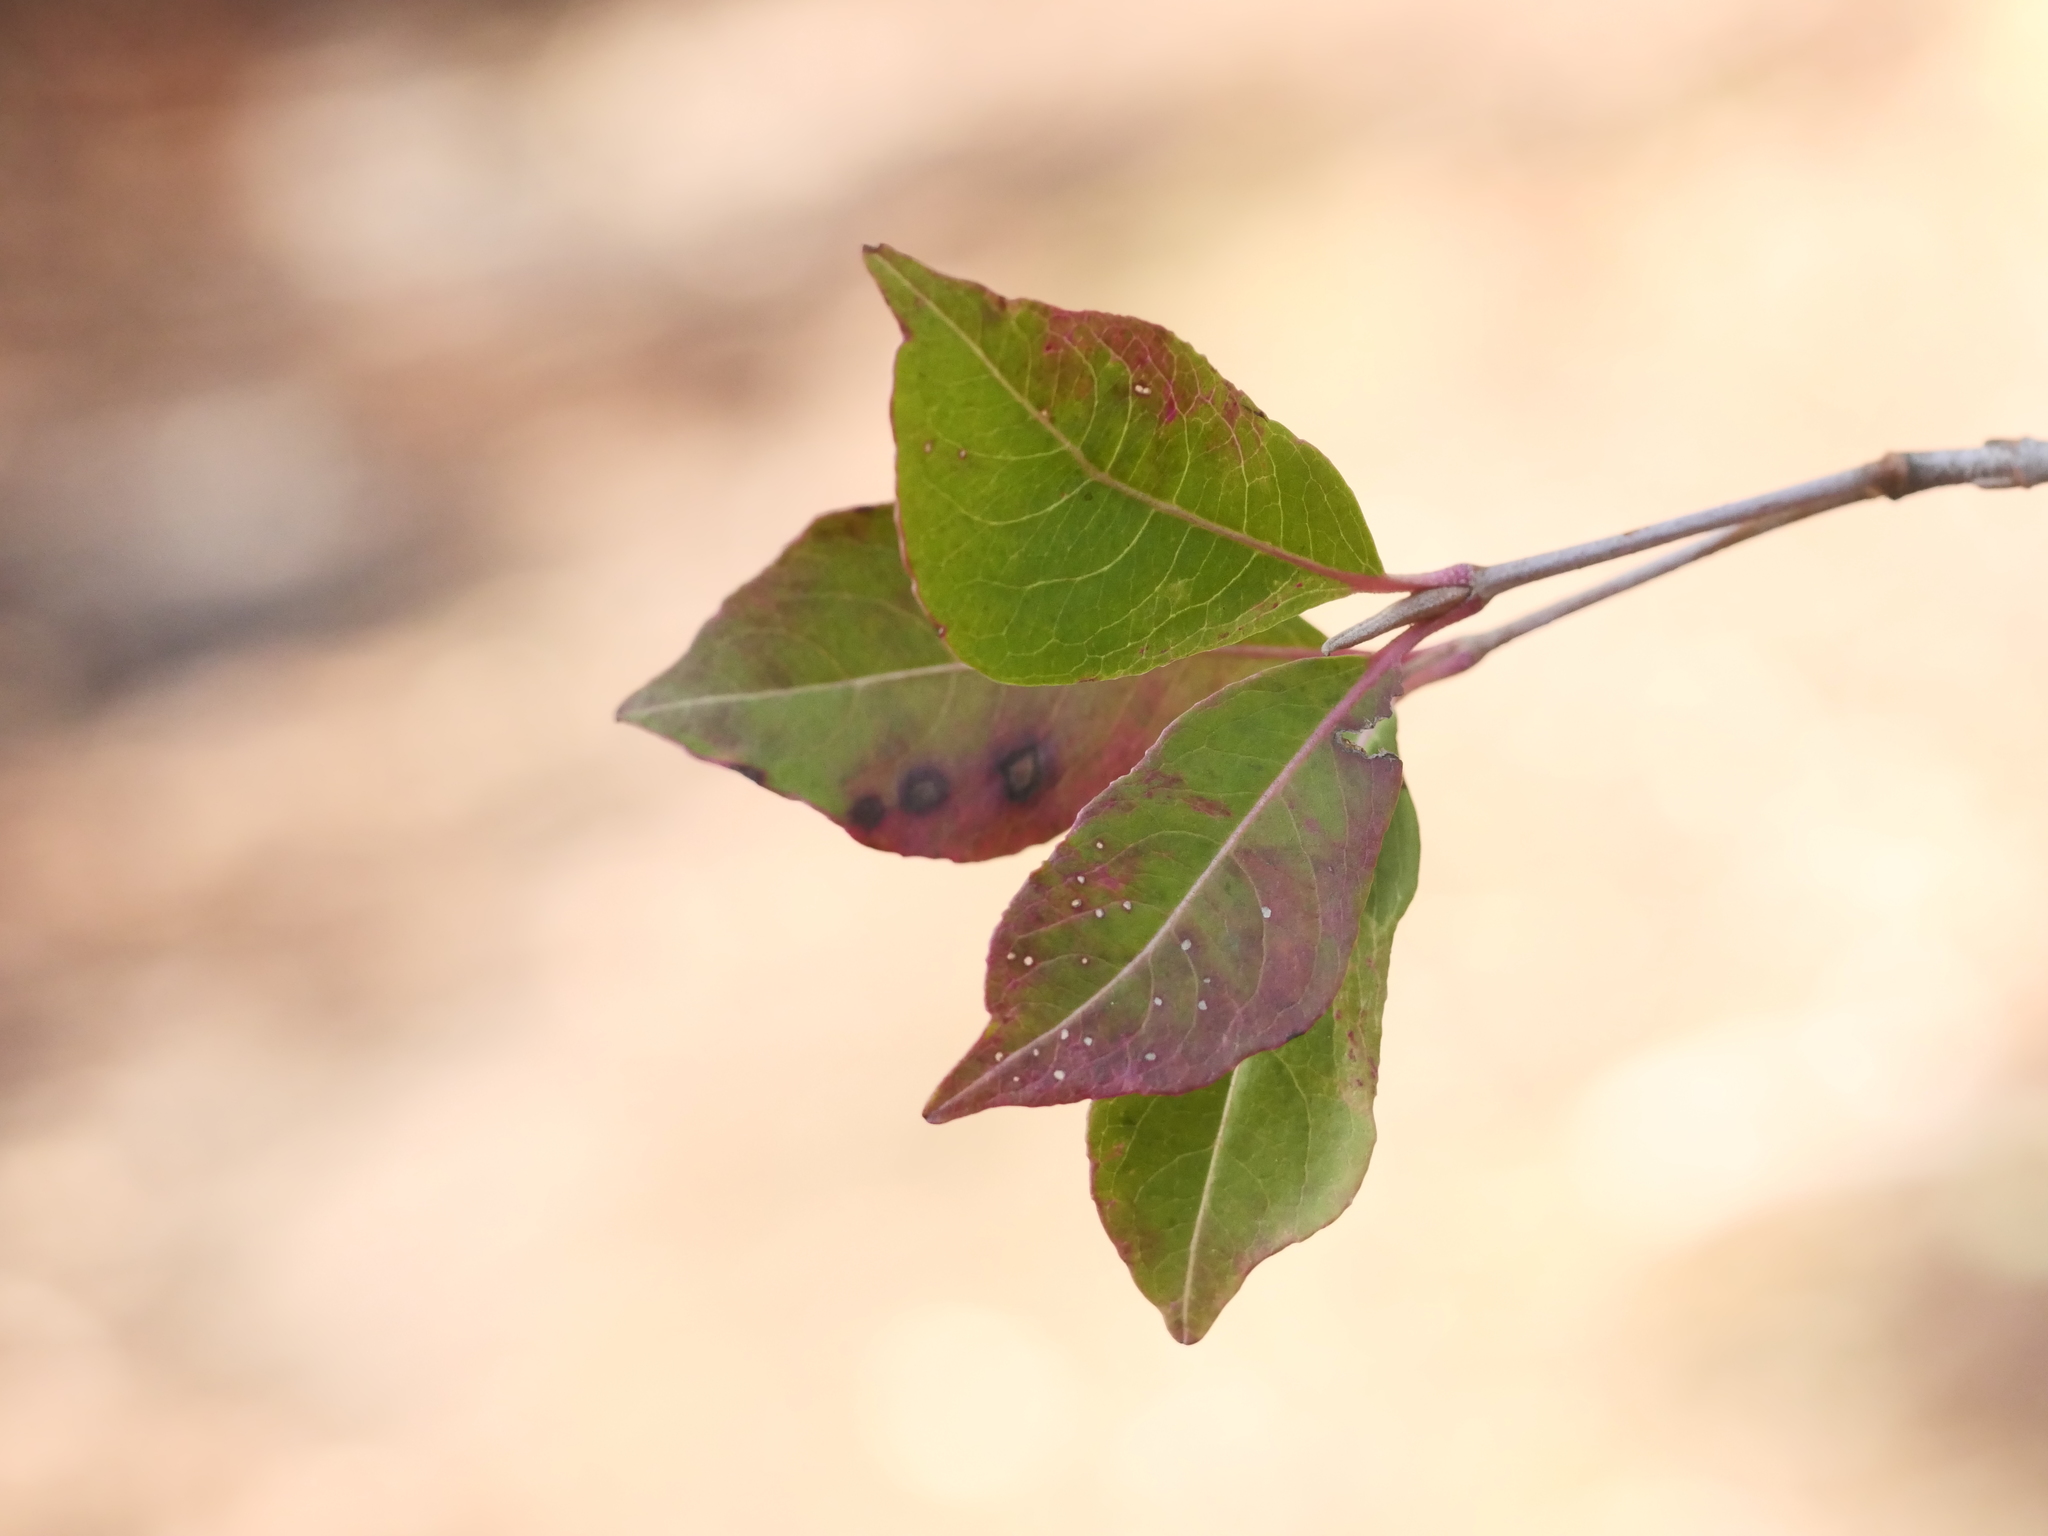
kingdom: Plantae
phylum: Tracheophyta
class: Magnoliopsida
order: Dipsacales
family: Viburnaceae
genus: Viburnum
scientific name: Viburnum cassinoides
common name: Swamp haw
